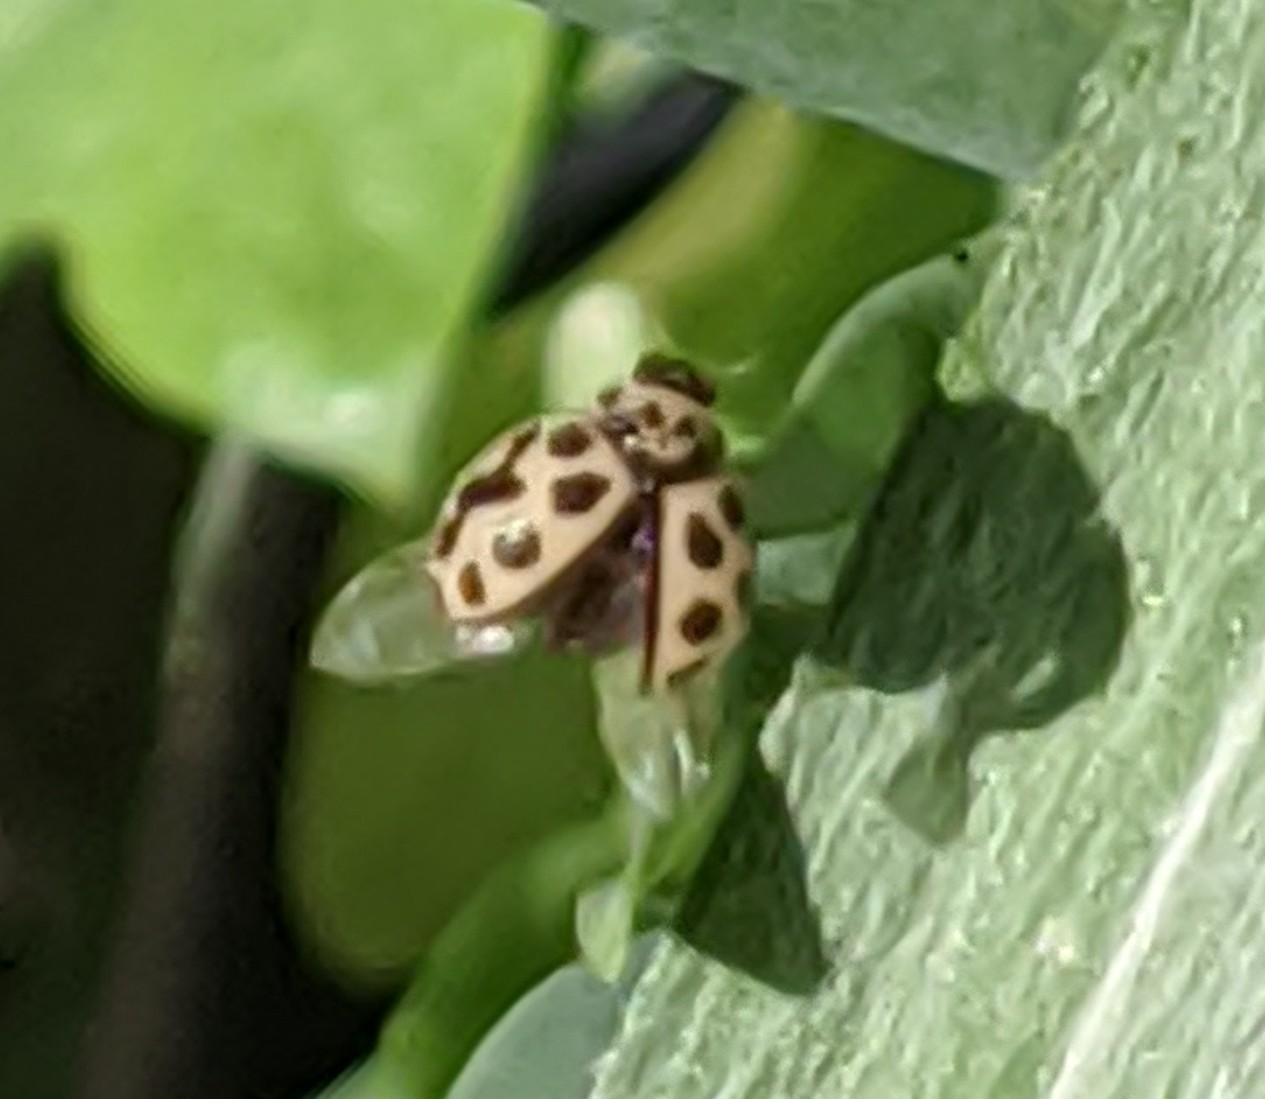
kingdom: Animalia
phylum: Arthropoda
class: Insecta
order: Coleoptera
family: Coccinellidae
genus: Tytthaspis
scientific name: Tytthaspis sedecimpunctata
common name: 16-spot ladybird
